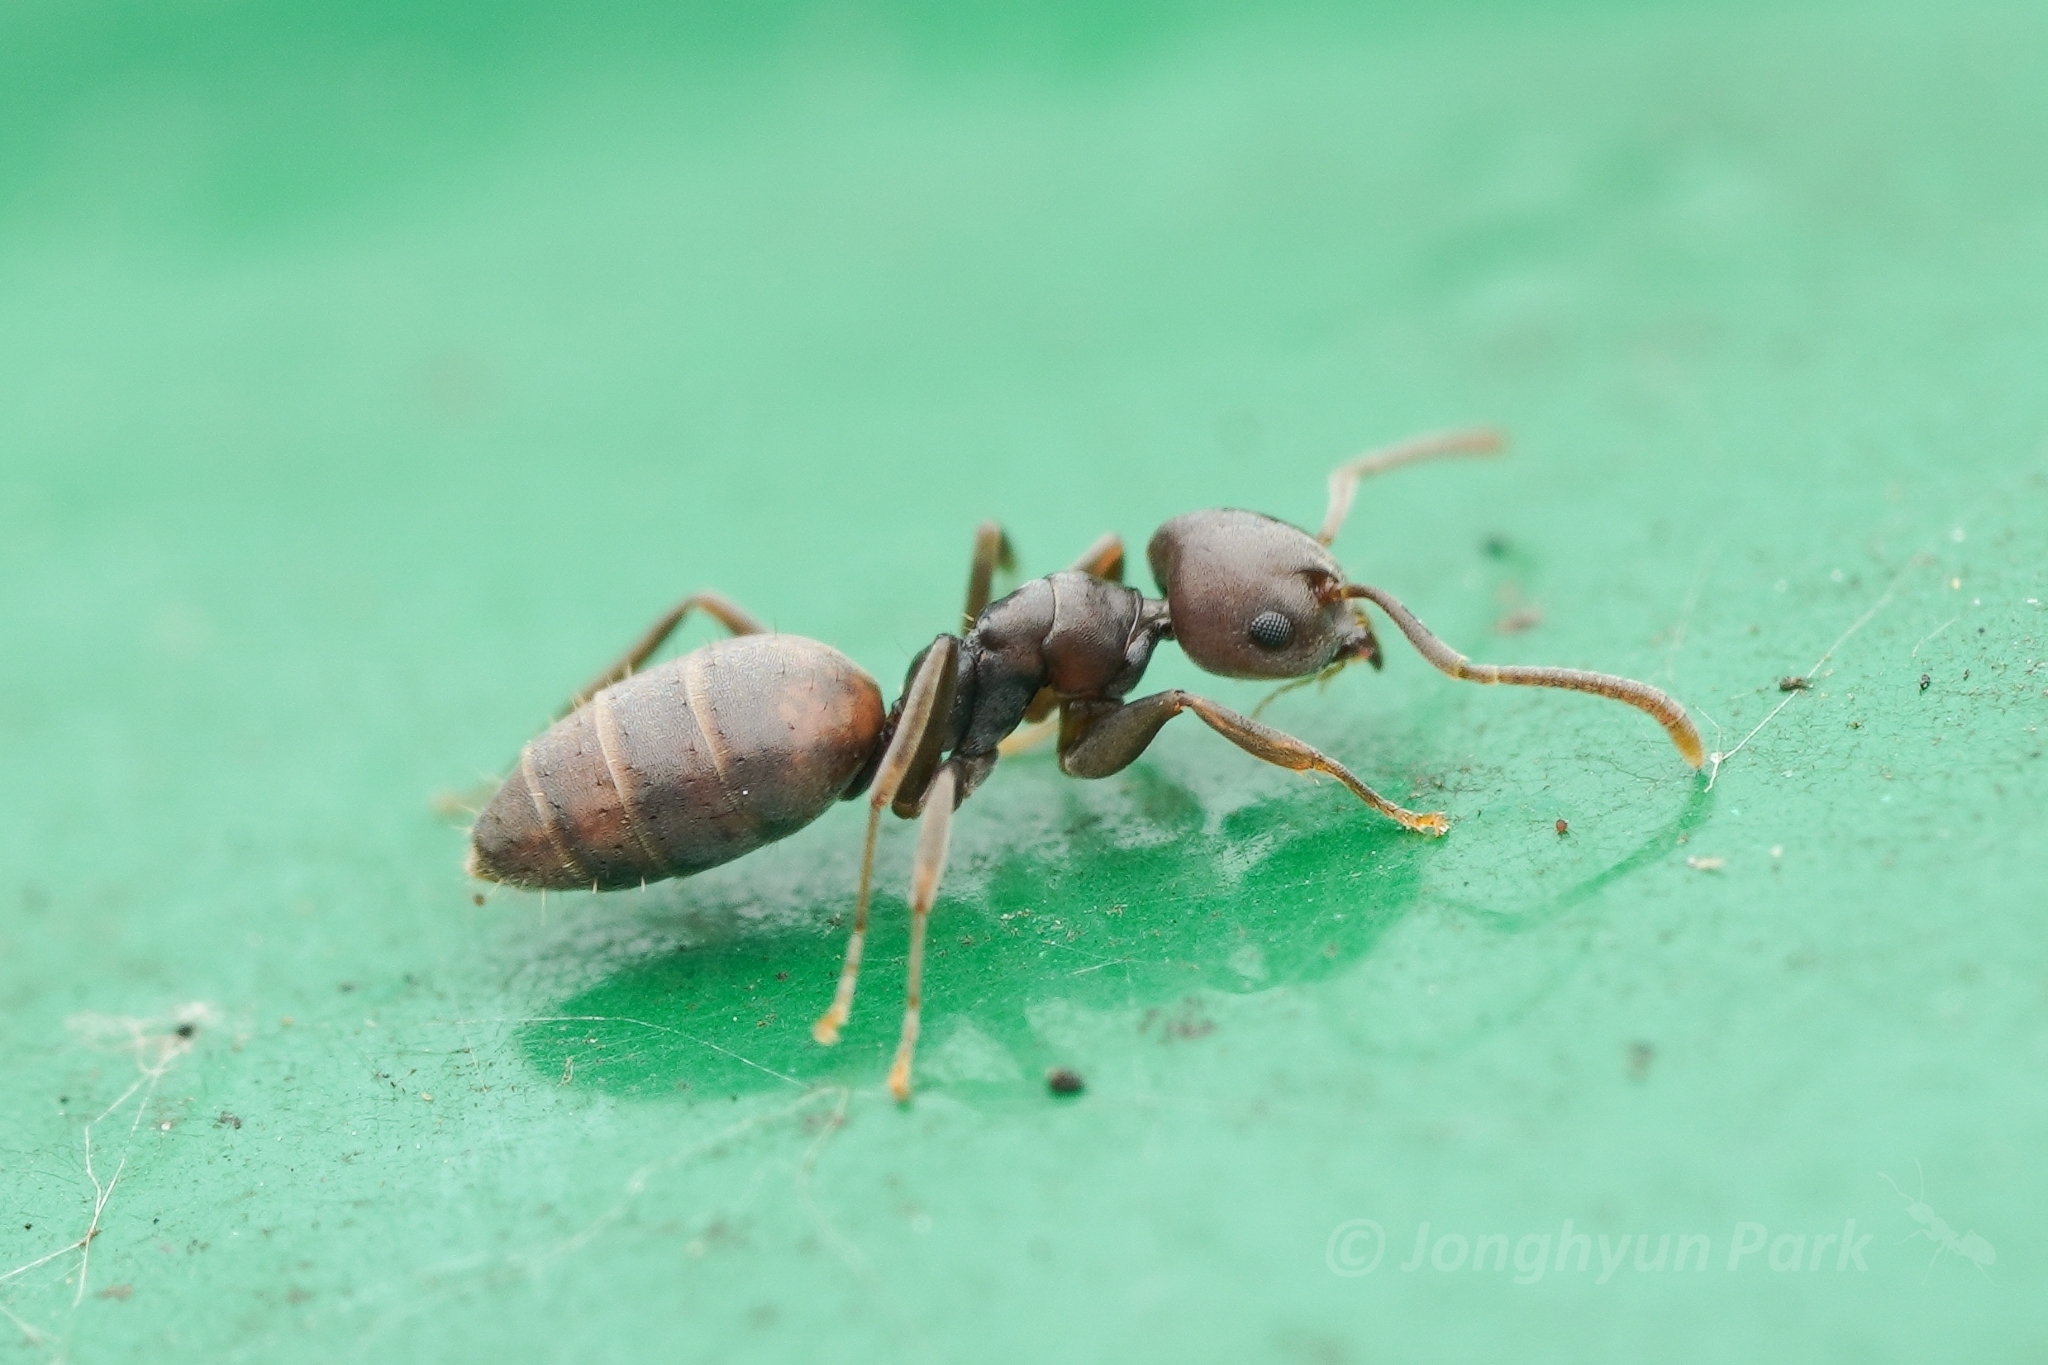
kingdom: Animalia
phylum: Arthropoda
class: Insecta
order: Hymenoptera
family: Formicidae
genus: Technomyrmex
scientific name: Technomyrmex brunneus
